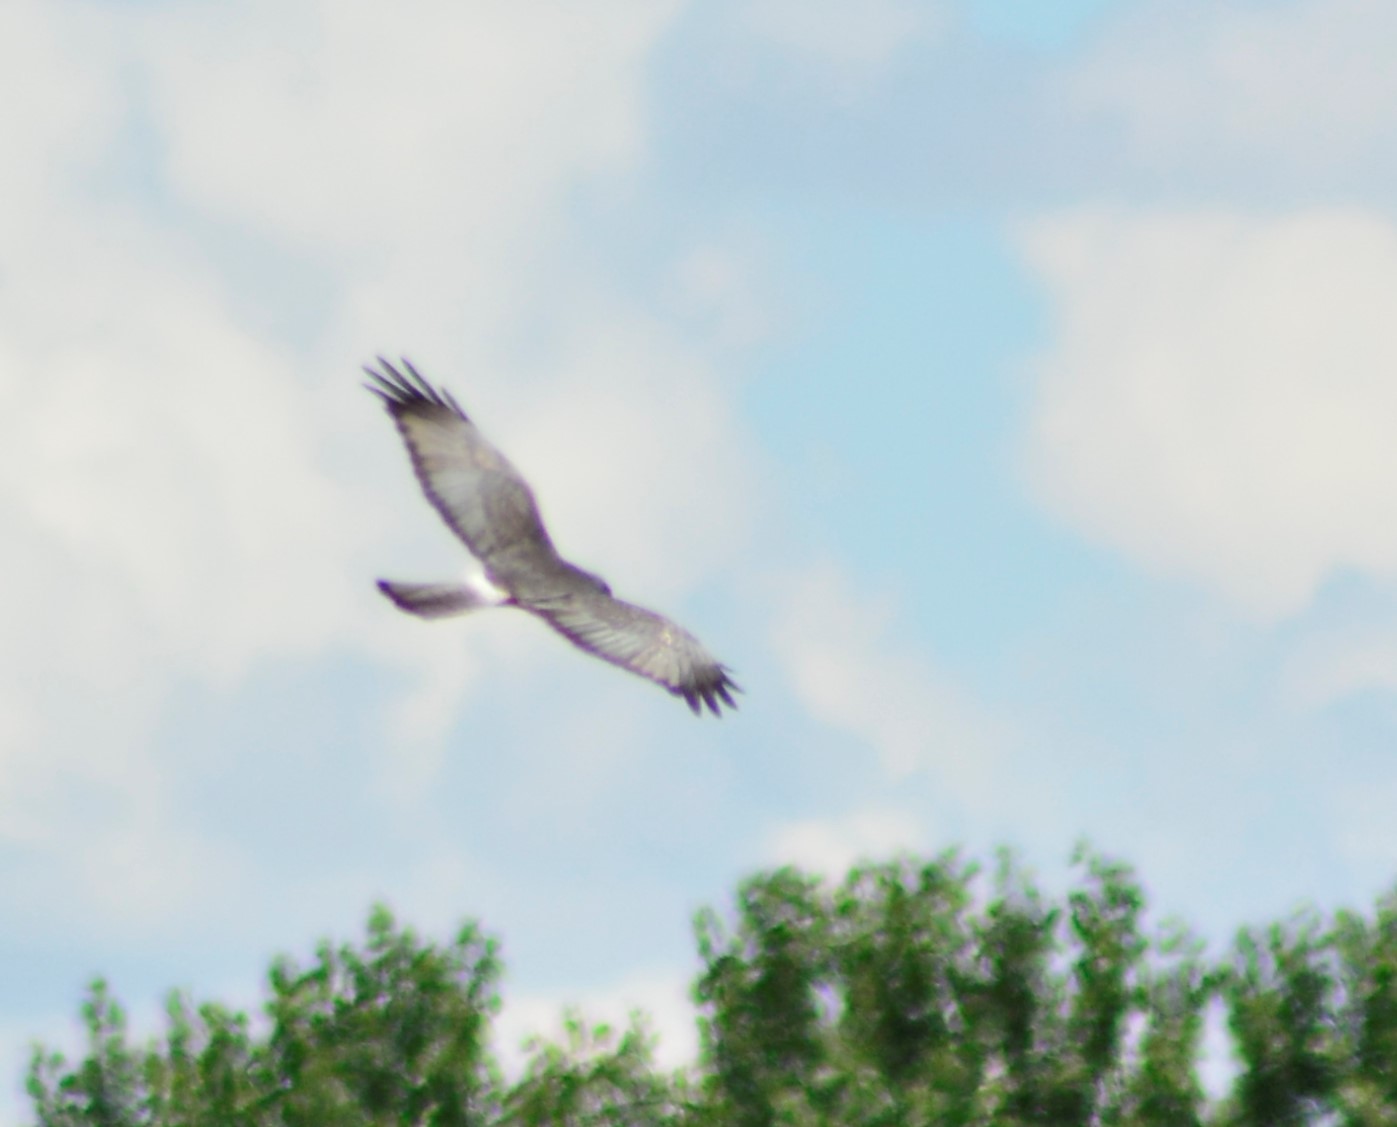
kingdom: Animalia
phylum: Chordata
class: Aves
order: Accipitriformes
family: Accipitridae
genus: Circus
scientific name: Circus cinereus
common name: Cinereous harrier
